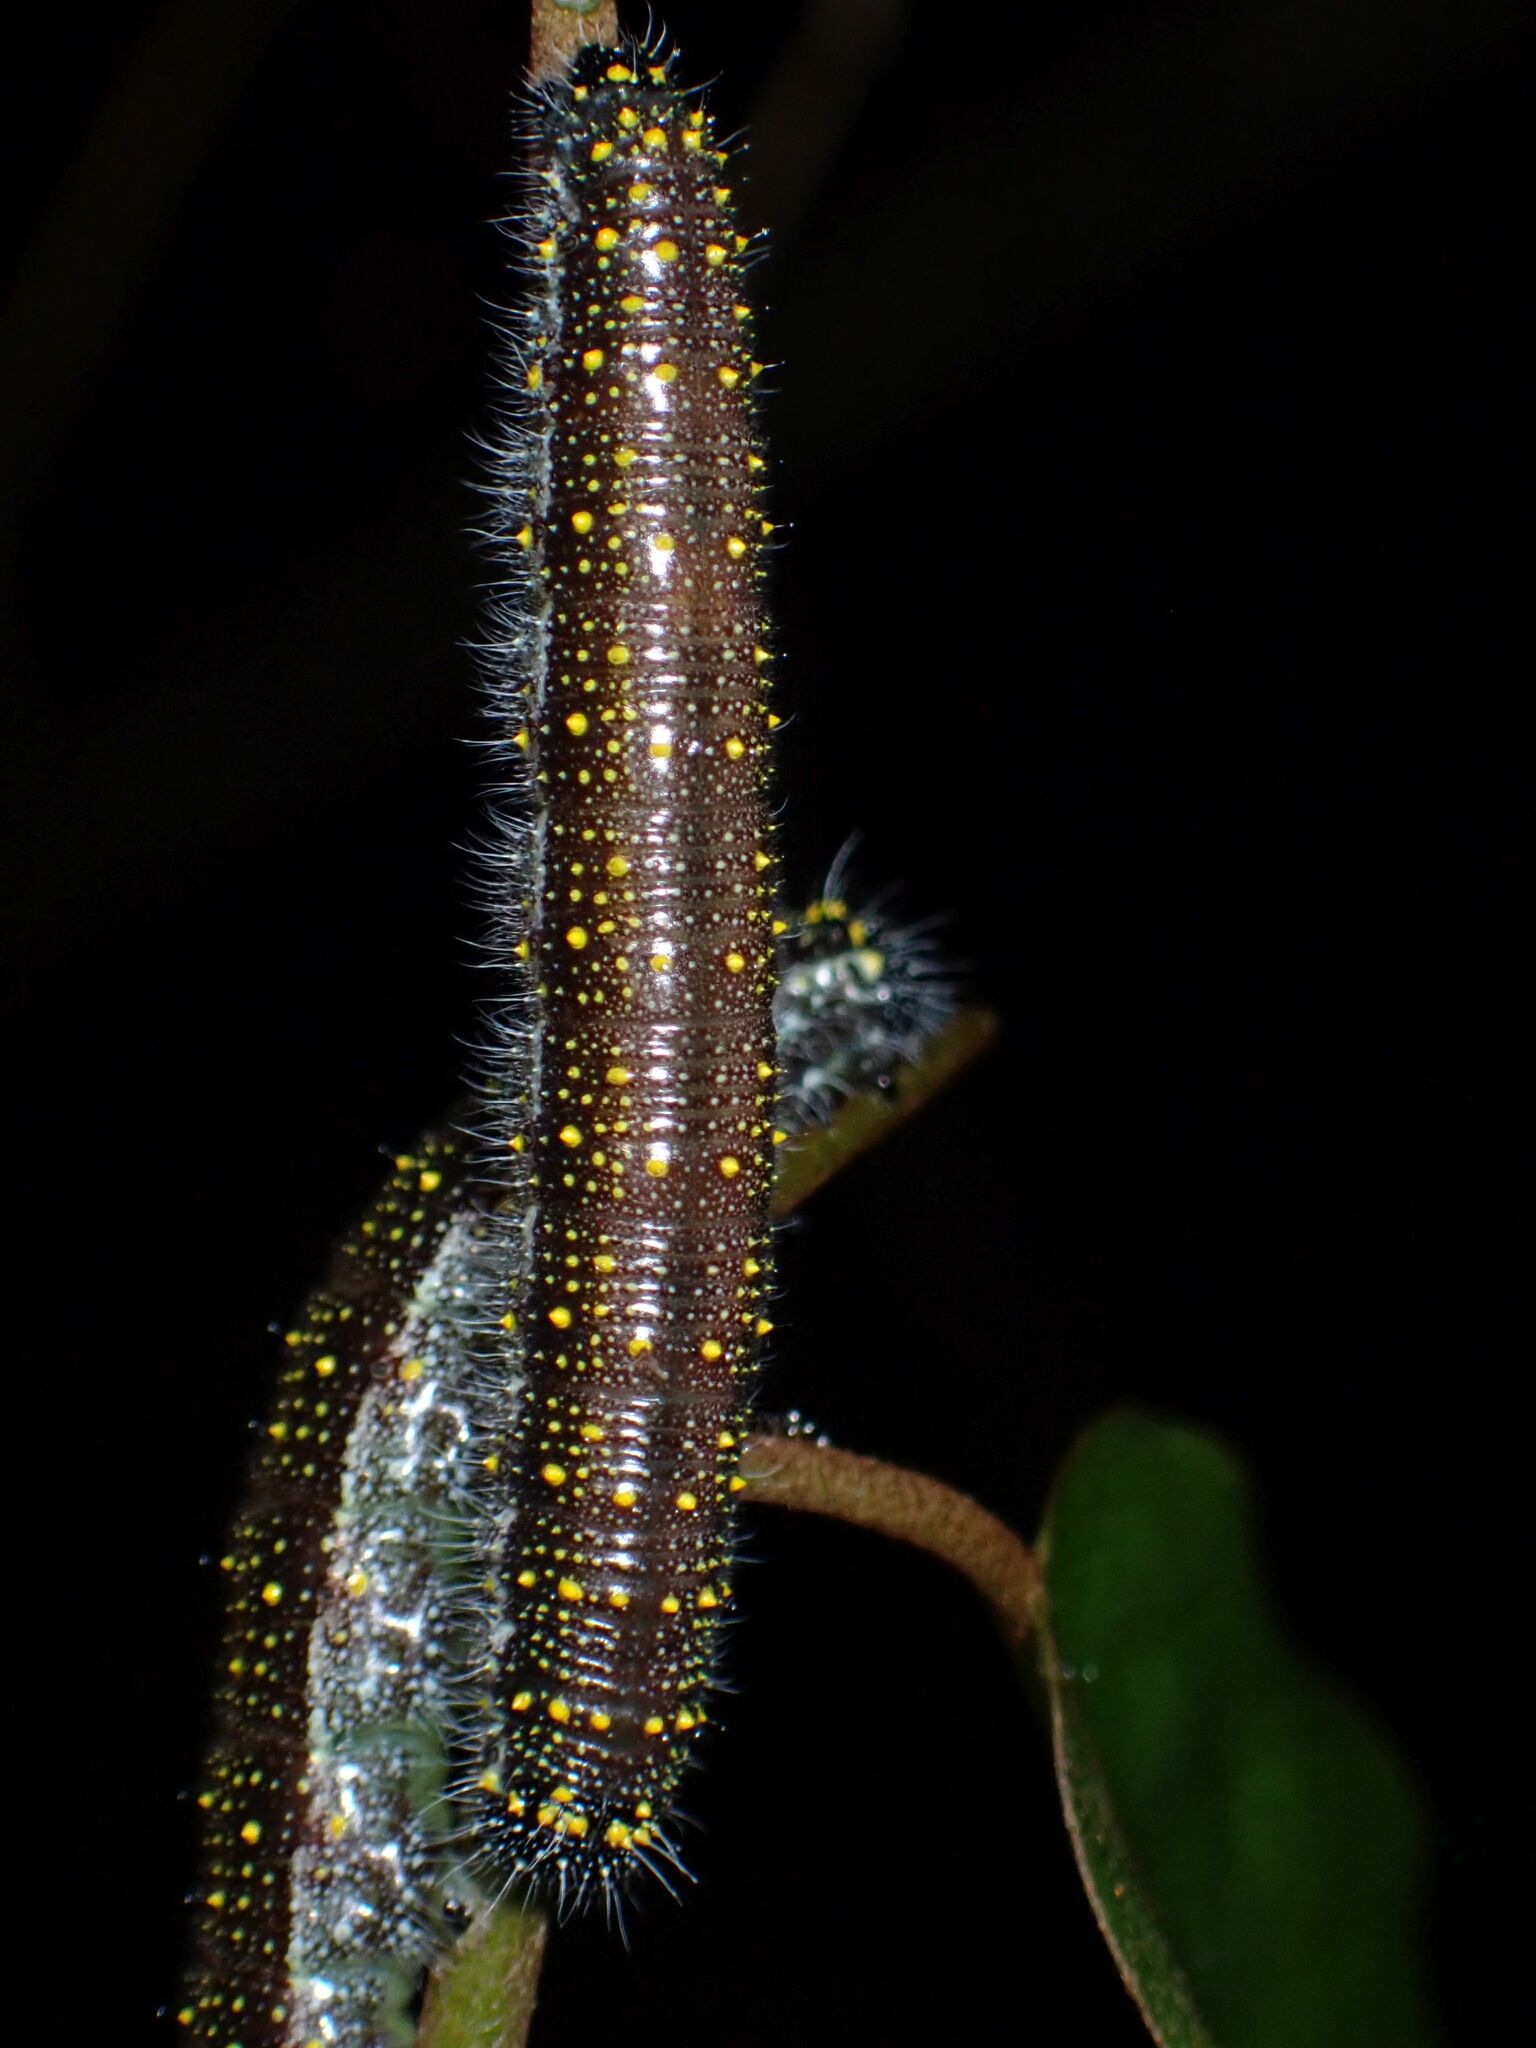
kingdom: Animalia
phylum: Arthropoda
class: Insecta
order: Lepidoptera
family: Pieridae
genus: Belenois
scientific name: Belenois java
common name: Caper white
